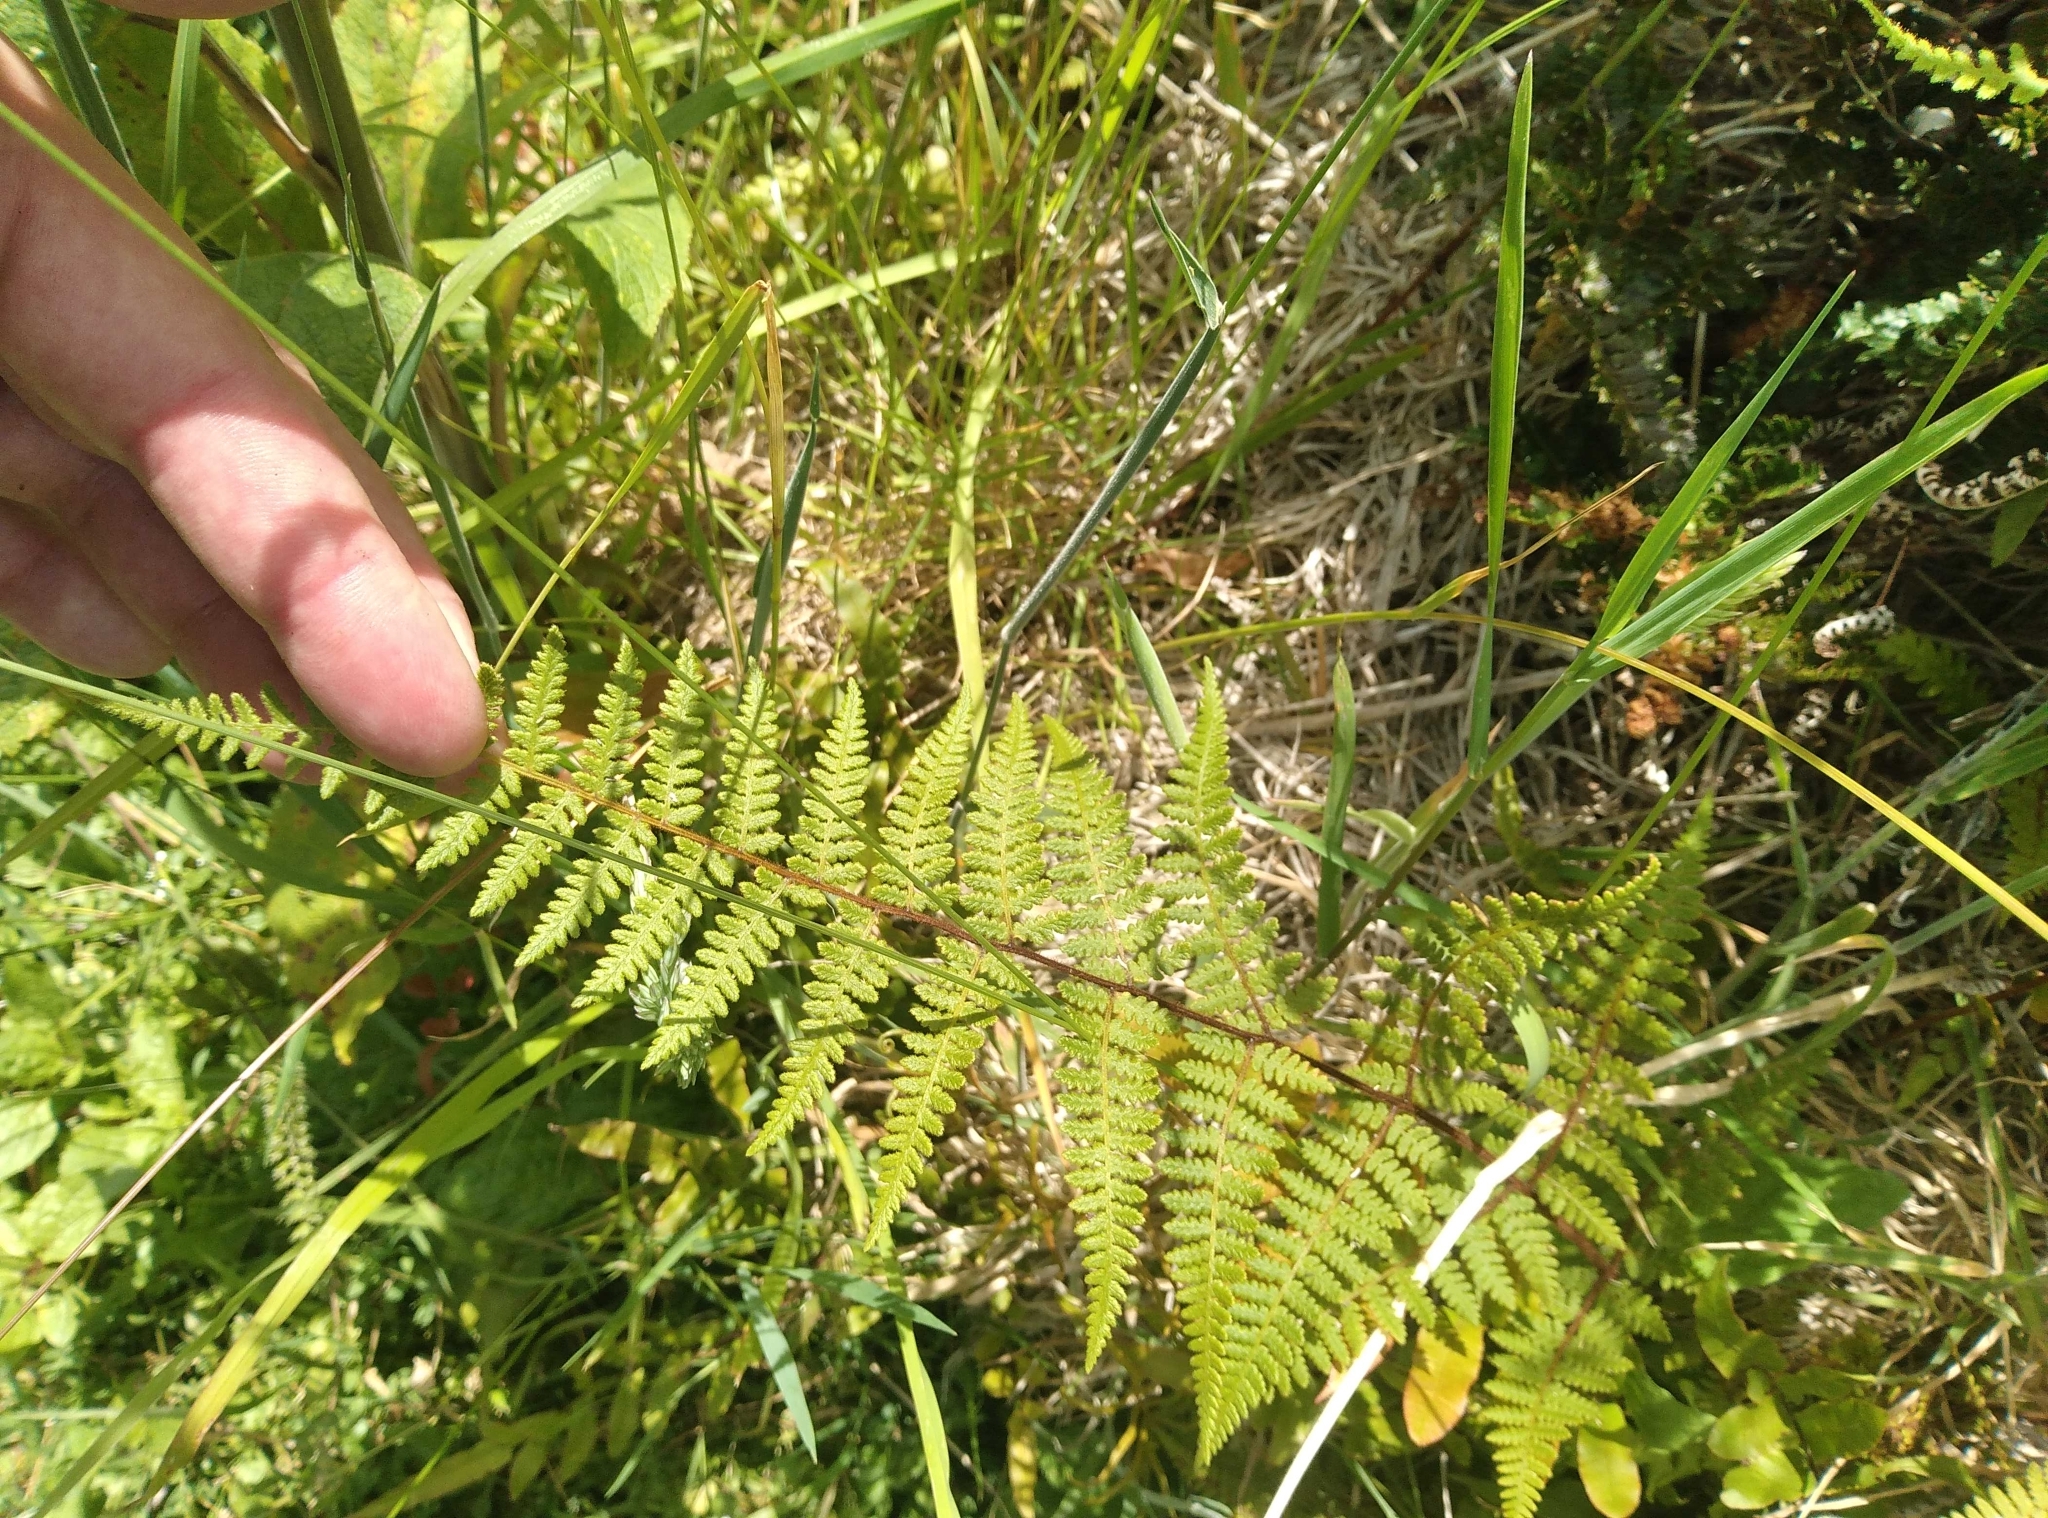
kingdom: Plantae
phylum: Tracheophyta
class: Polypodiopsida
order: Polypodiales
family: Dennstaedtiaceae
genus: Hypolepis
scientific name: Hypolepis rugosula
